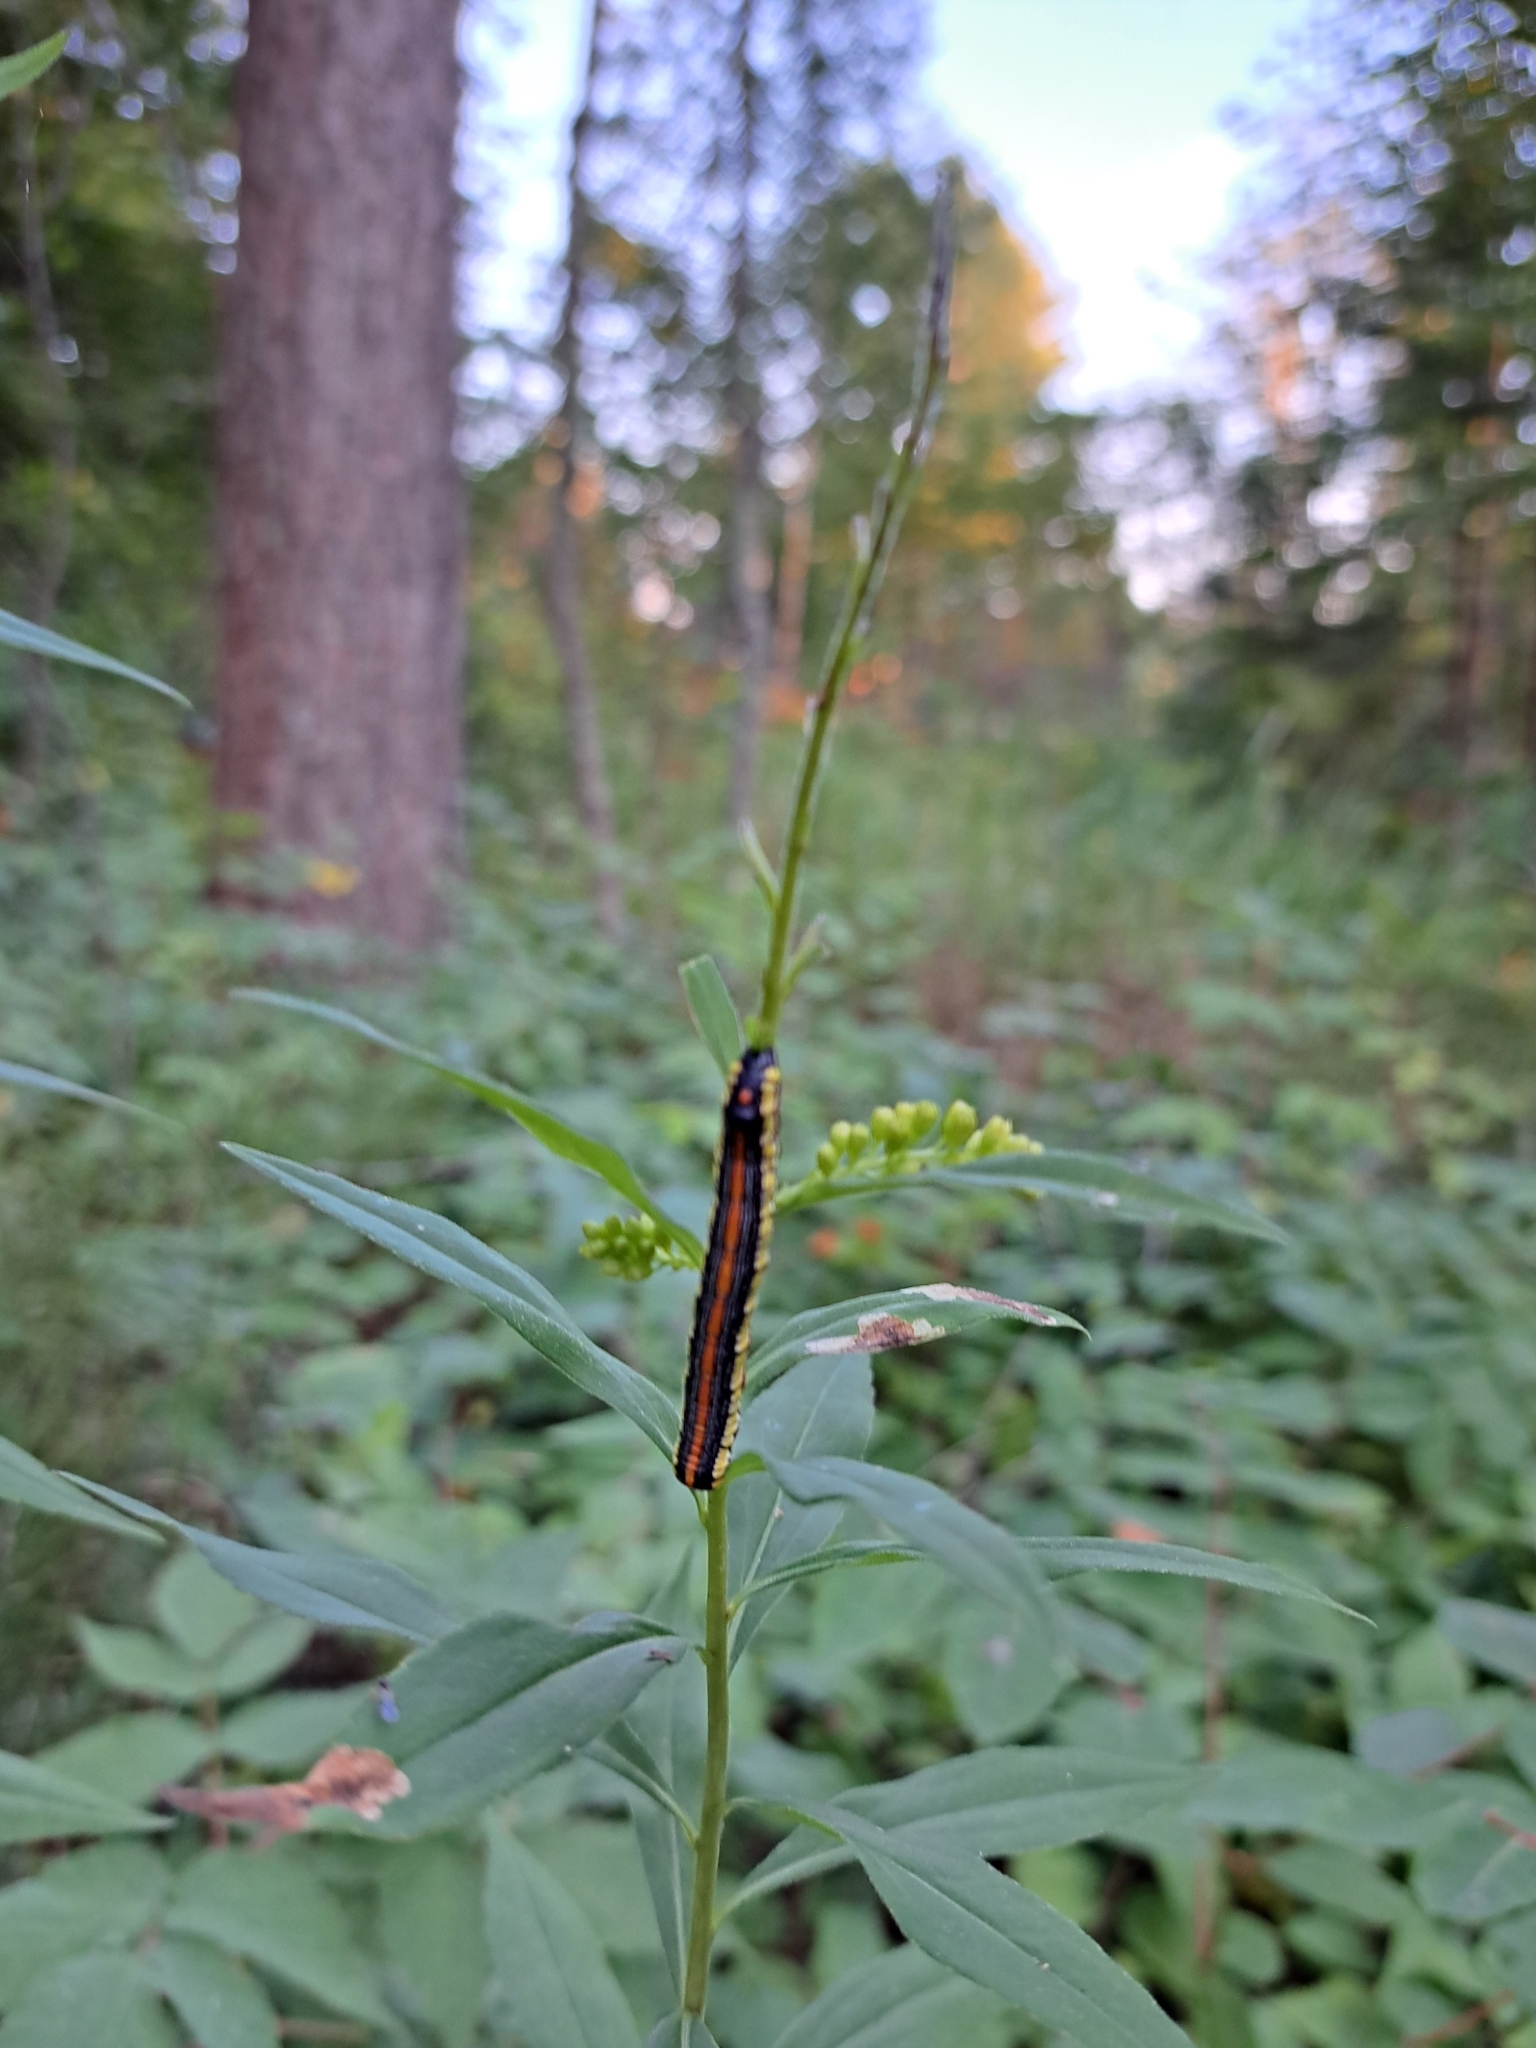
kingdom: Animalia
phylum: Arthropoda
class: Insecta
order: Lepidoptera
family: Noctuidae
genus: Cucullia
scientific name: Cucullia convexipennis
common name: Brown-hooded owlet
